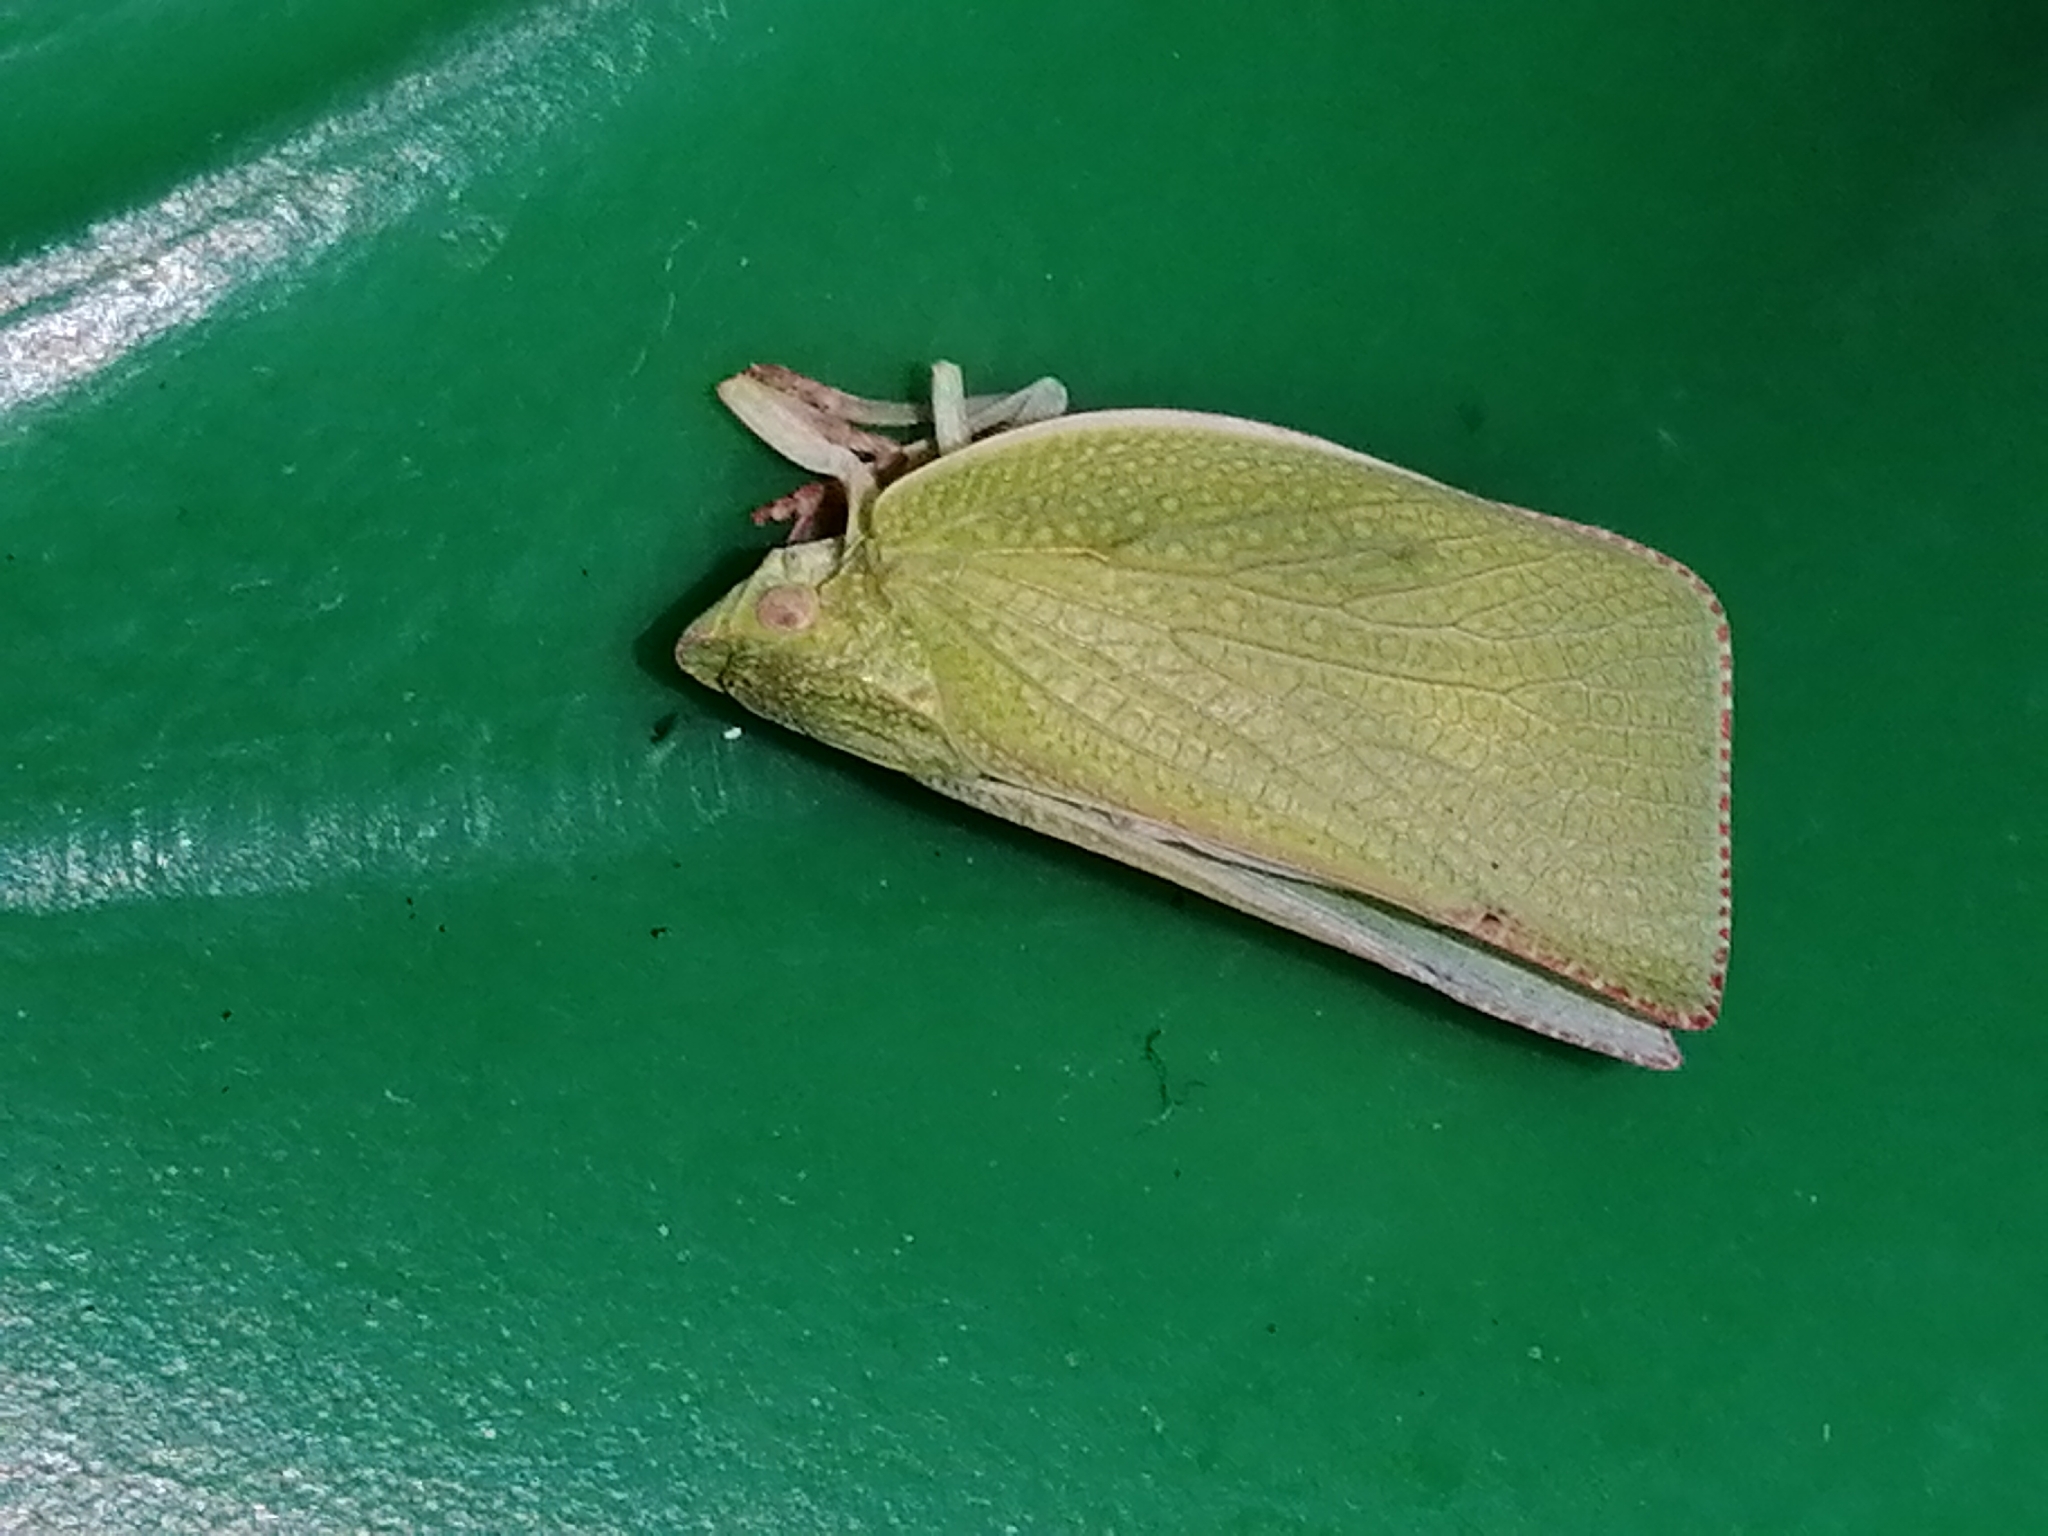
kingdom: Animalia
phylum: Arthropoda
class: Insecta
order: Hemiptera
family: Flatidae
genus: Siphanta
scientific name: Siphanta acuta
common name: Torpedo bug
